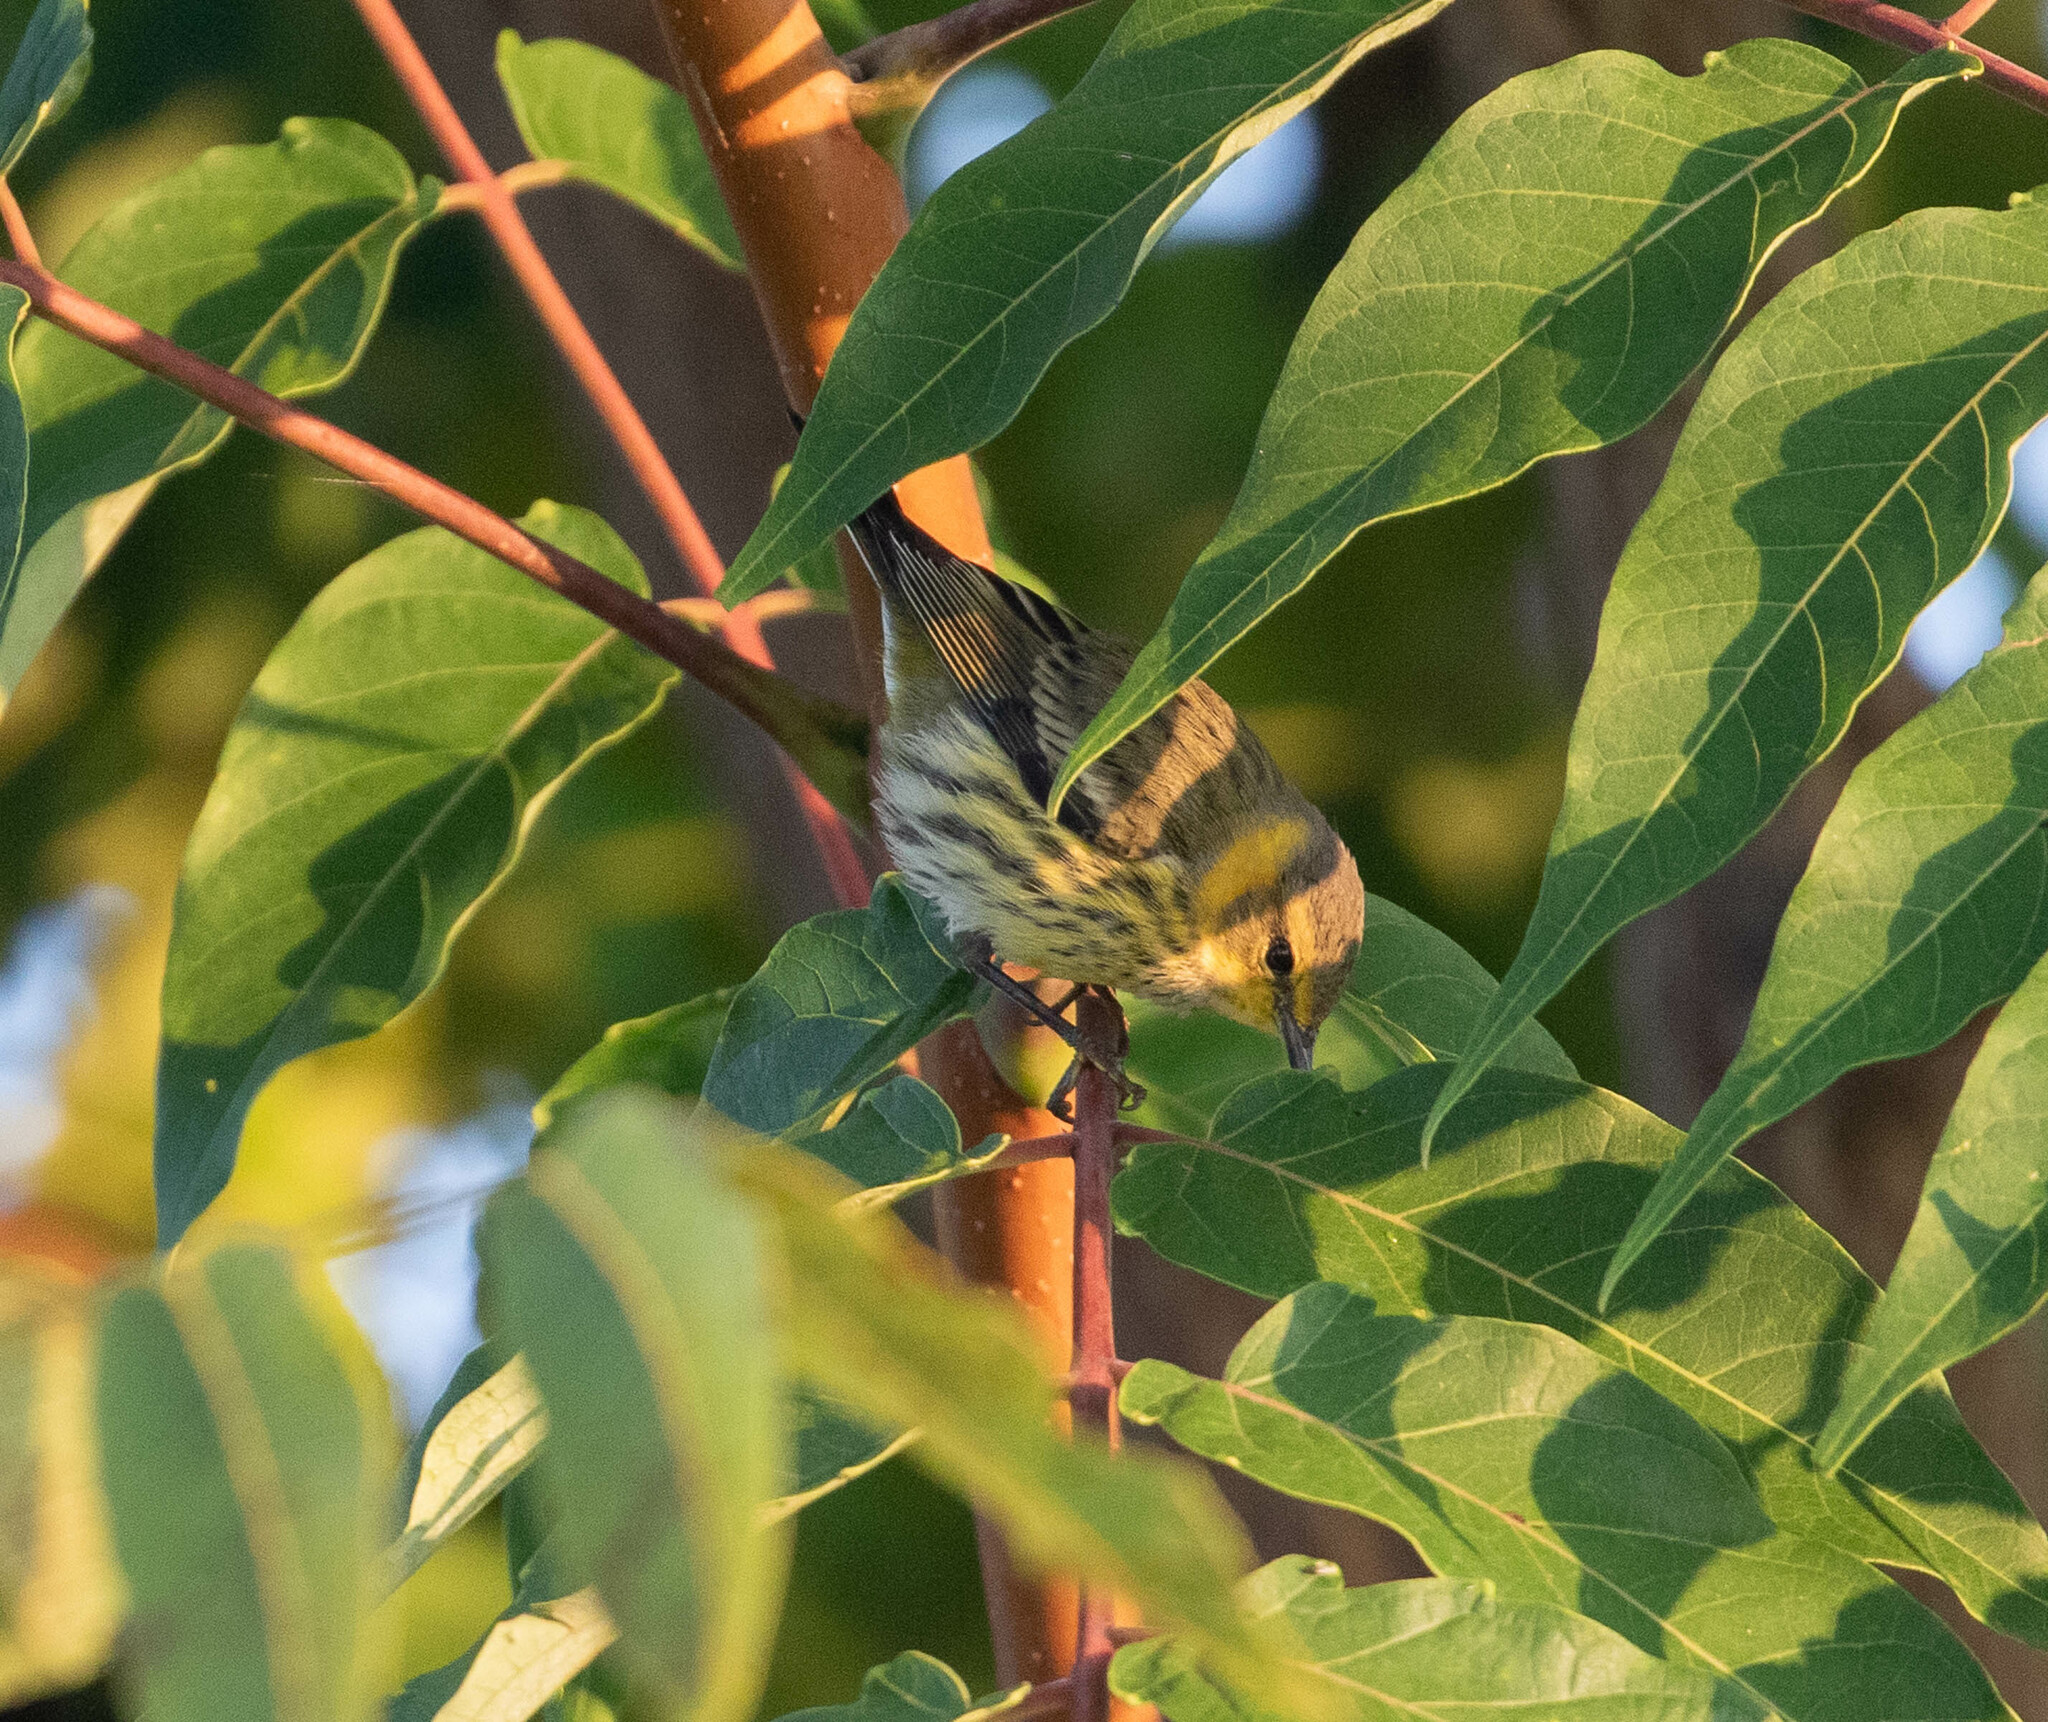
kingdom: Animalia
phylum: Chordata
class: Aves
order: Passeriformes
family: Parulidae
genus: Setophaga
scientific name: Setophaga tigrina
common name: Cape may warbler
